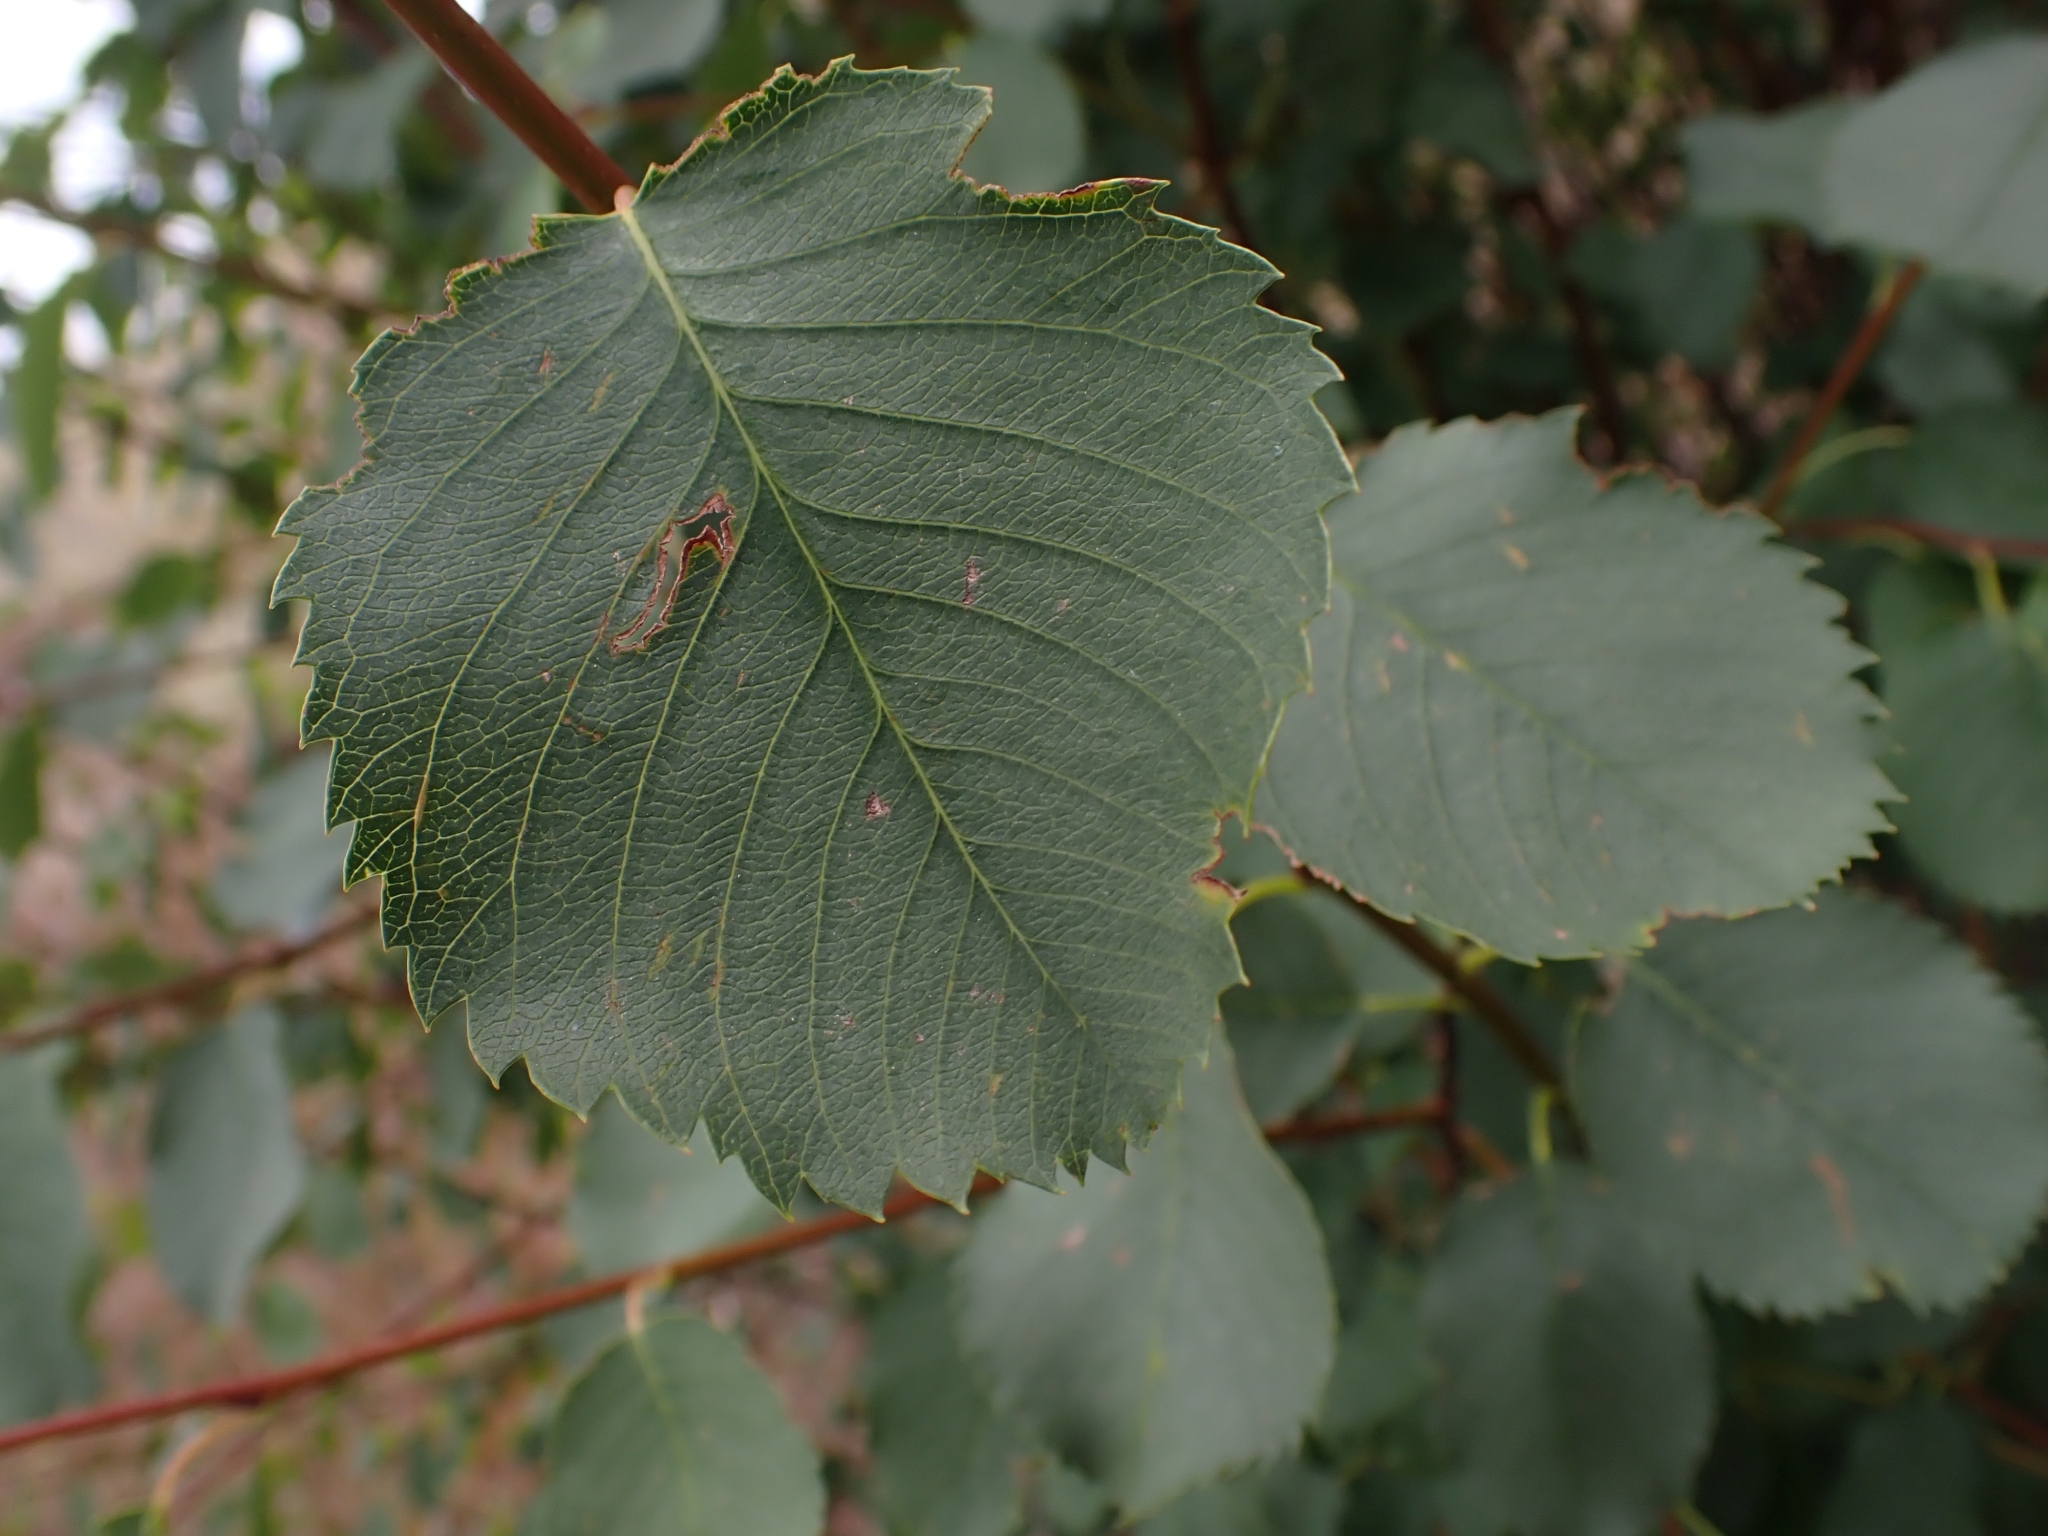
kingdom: Plantae
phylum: Tracheophyta
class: Magnoliopsida
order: Rosales
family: Rosaceae
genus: Amelanchier
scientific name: Amelanchier alnifolia
